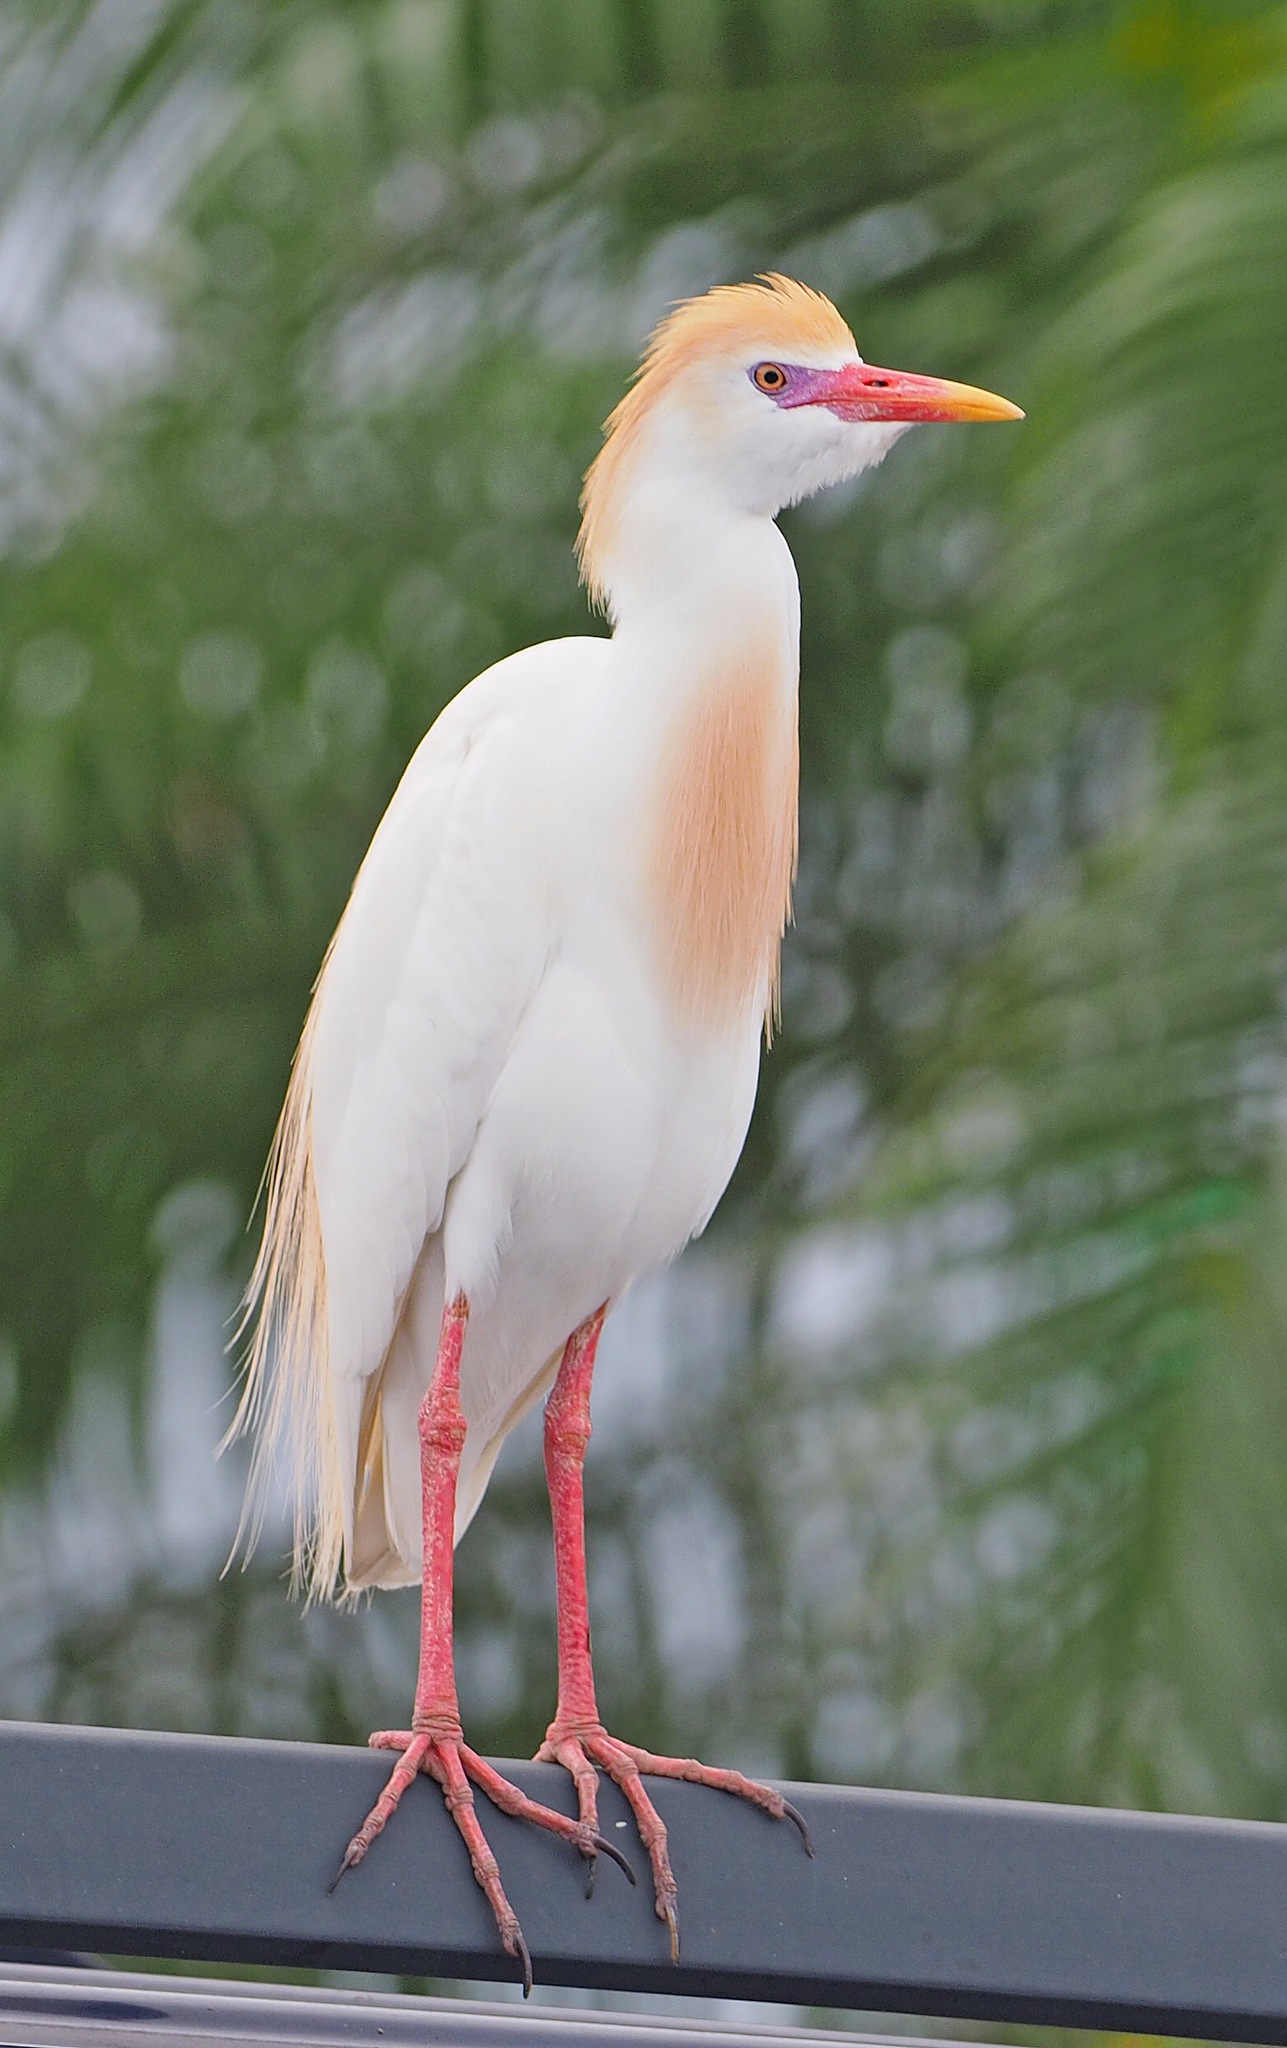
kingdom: Animalia
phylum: Chordata
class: Aves
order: Pelecaniformes
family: Ardeidae
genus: Bubulcus
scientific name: Bubulcus ibis
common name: Cattle egret
